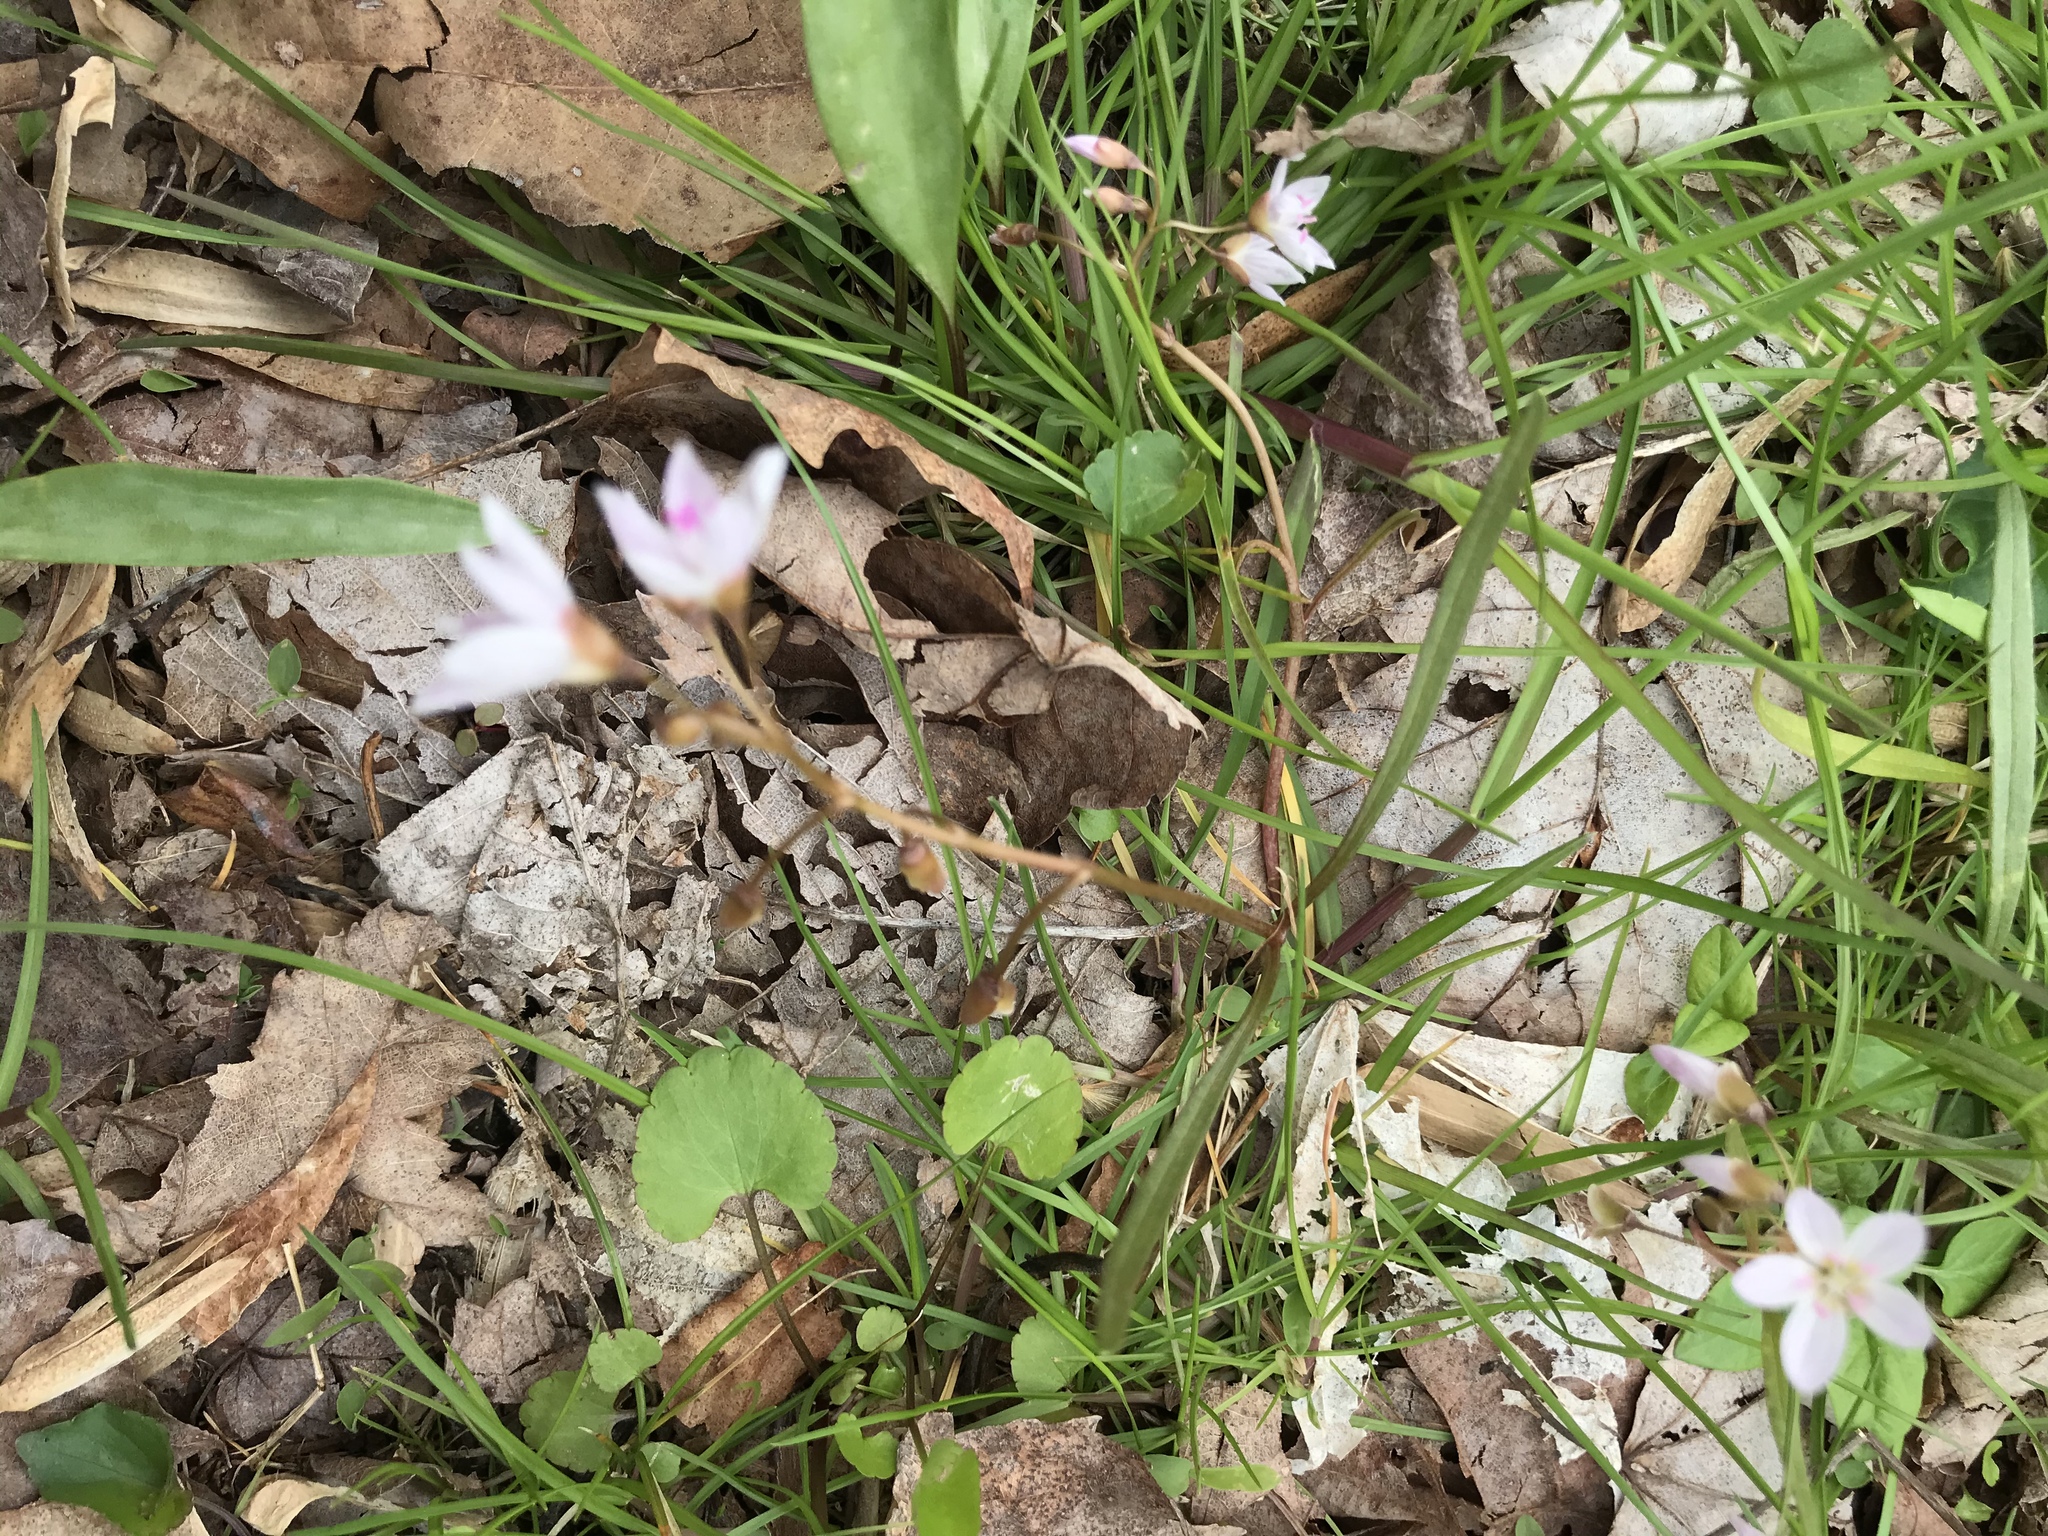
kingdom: Plantae
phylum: Tracheophyta
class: Magnoliopsida
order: Caryophyllales
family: Montiaceae
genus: Claytonia
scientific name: Claytonia virginica
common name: Virginia springbeauty
